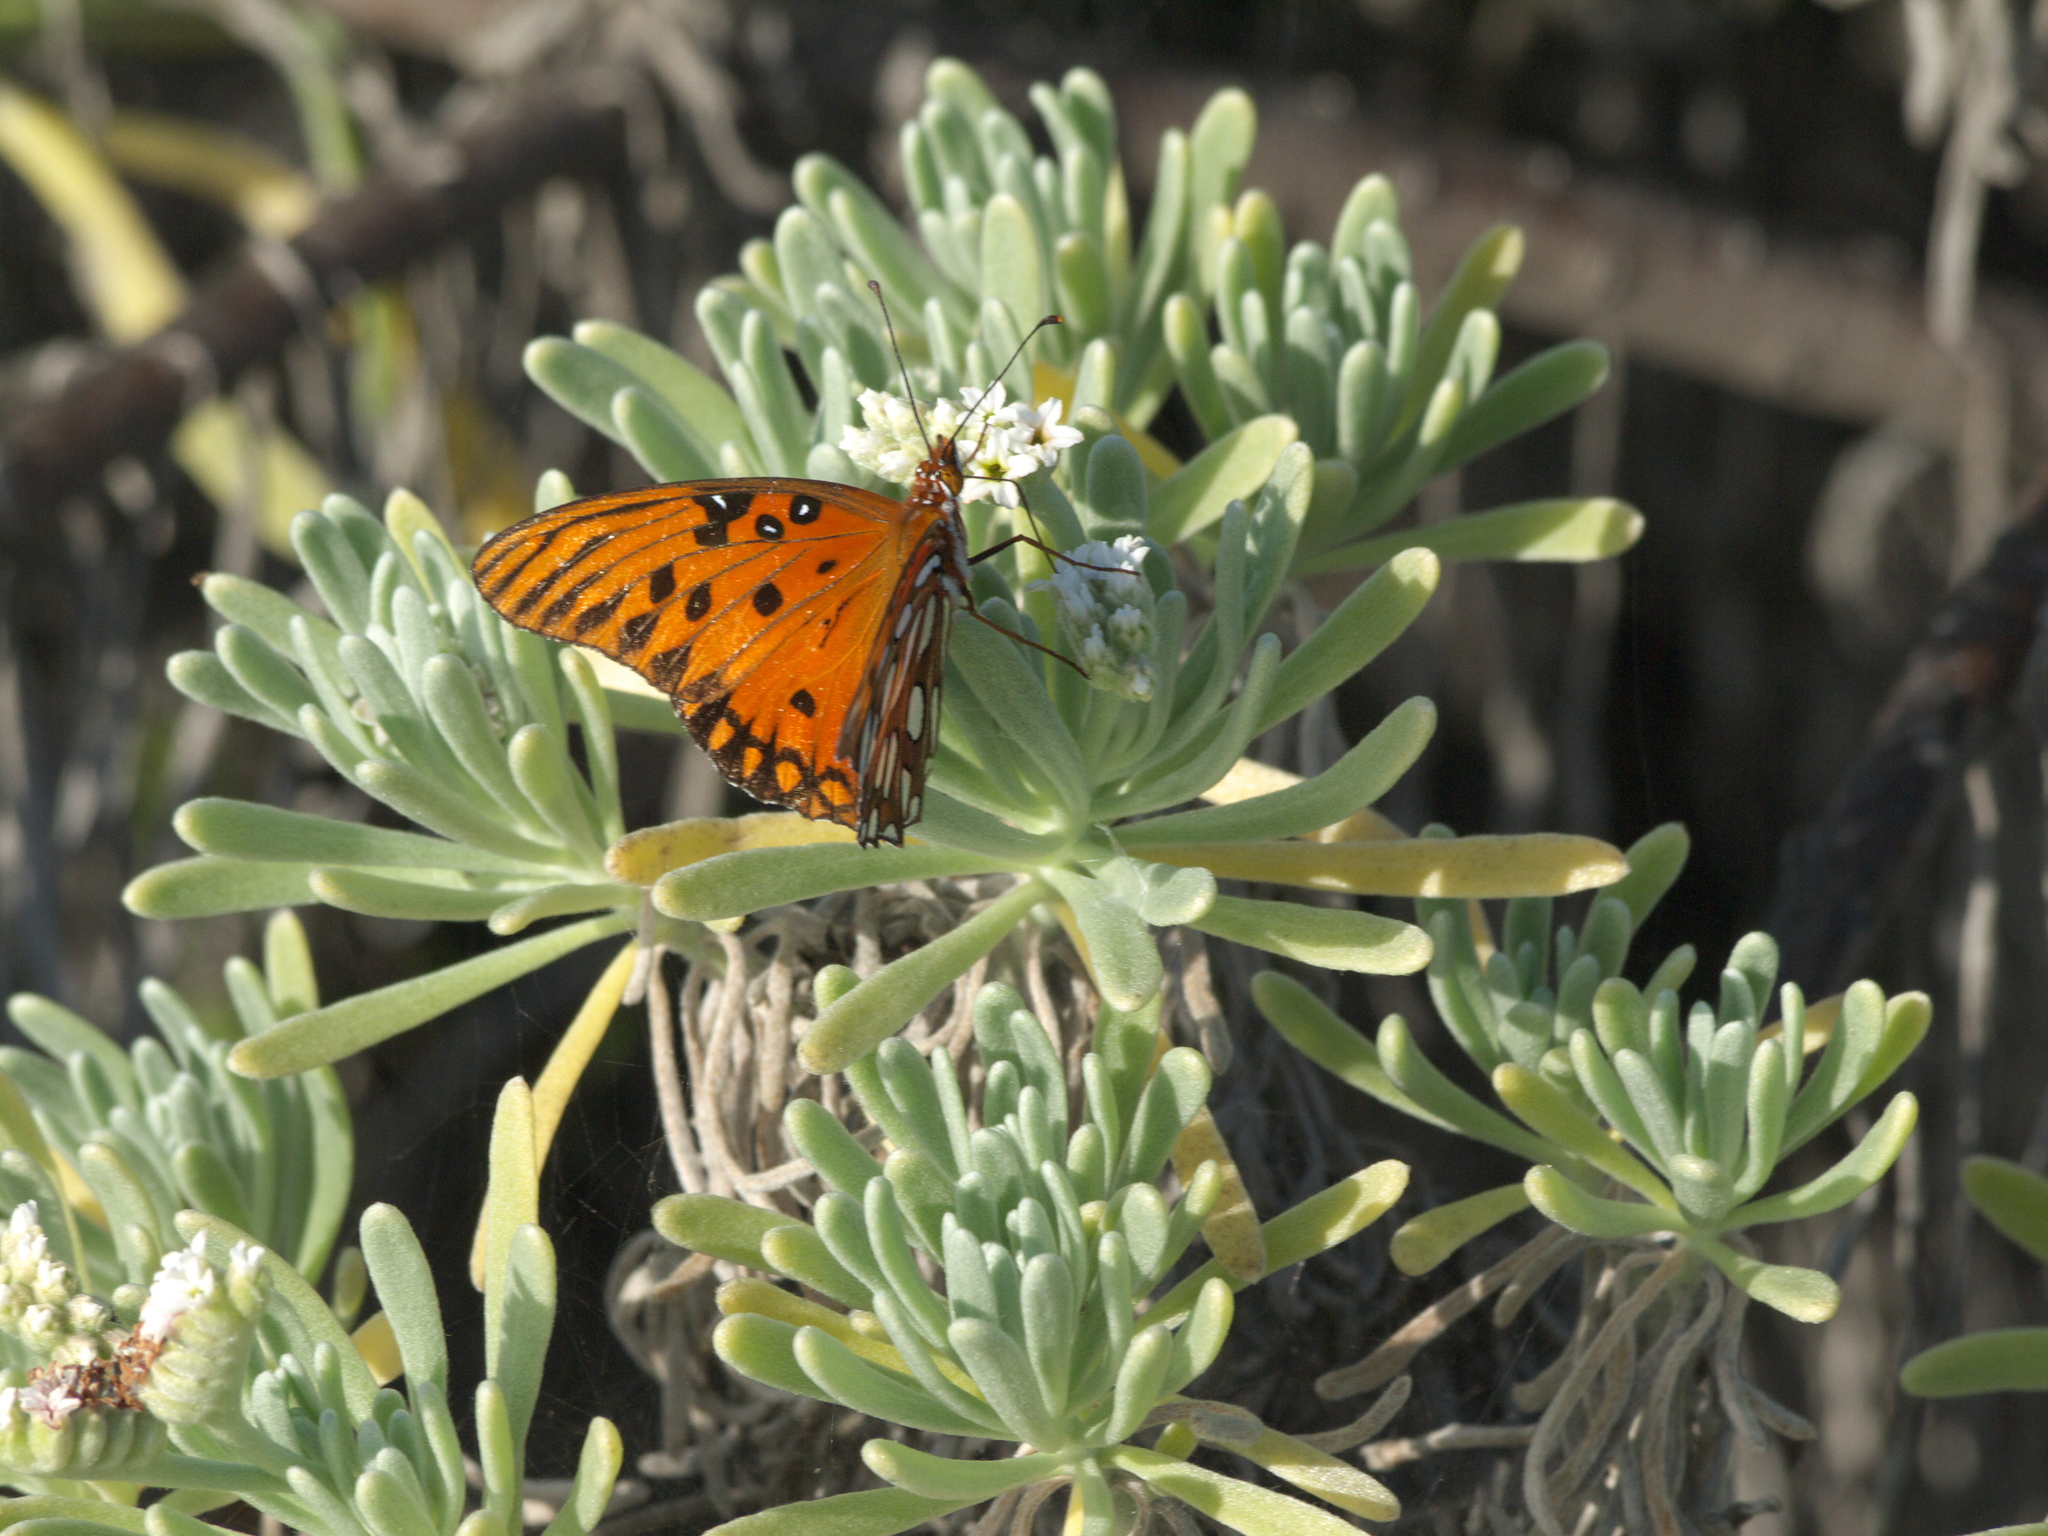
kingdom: Plantae
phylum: Tracheophyta
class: Magnoliopsida
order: Boraginales
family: Heliotropiaceae
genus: Tournefortia
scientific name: Tournefortia gnaphalodes
